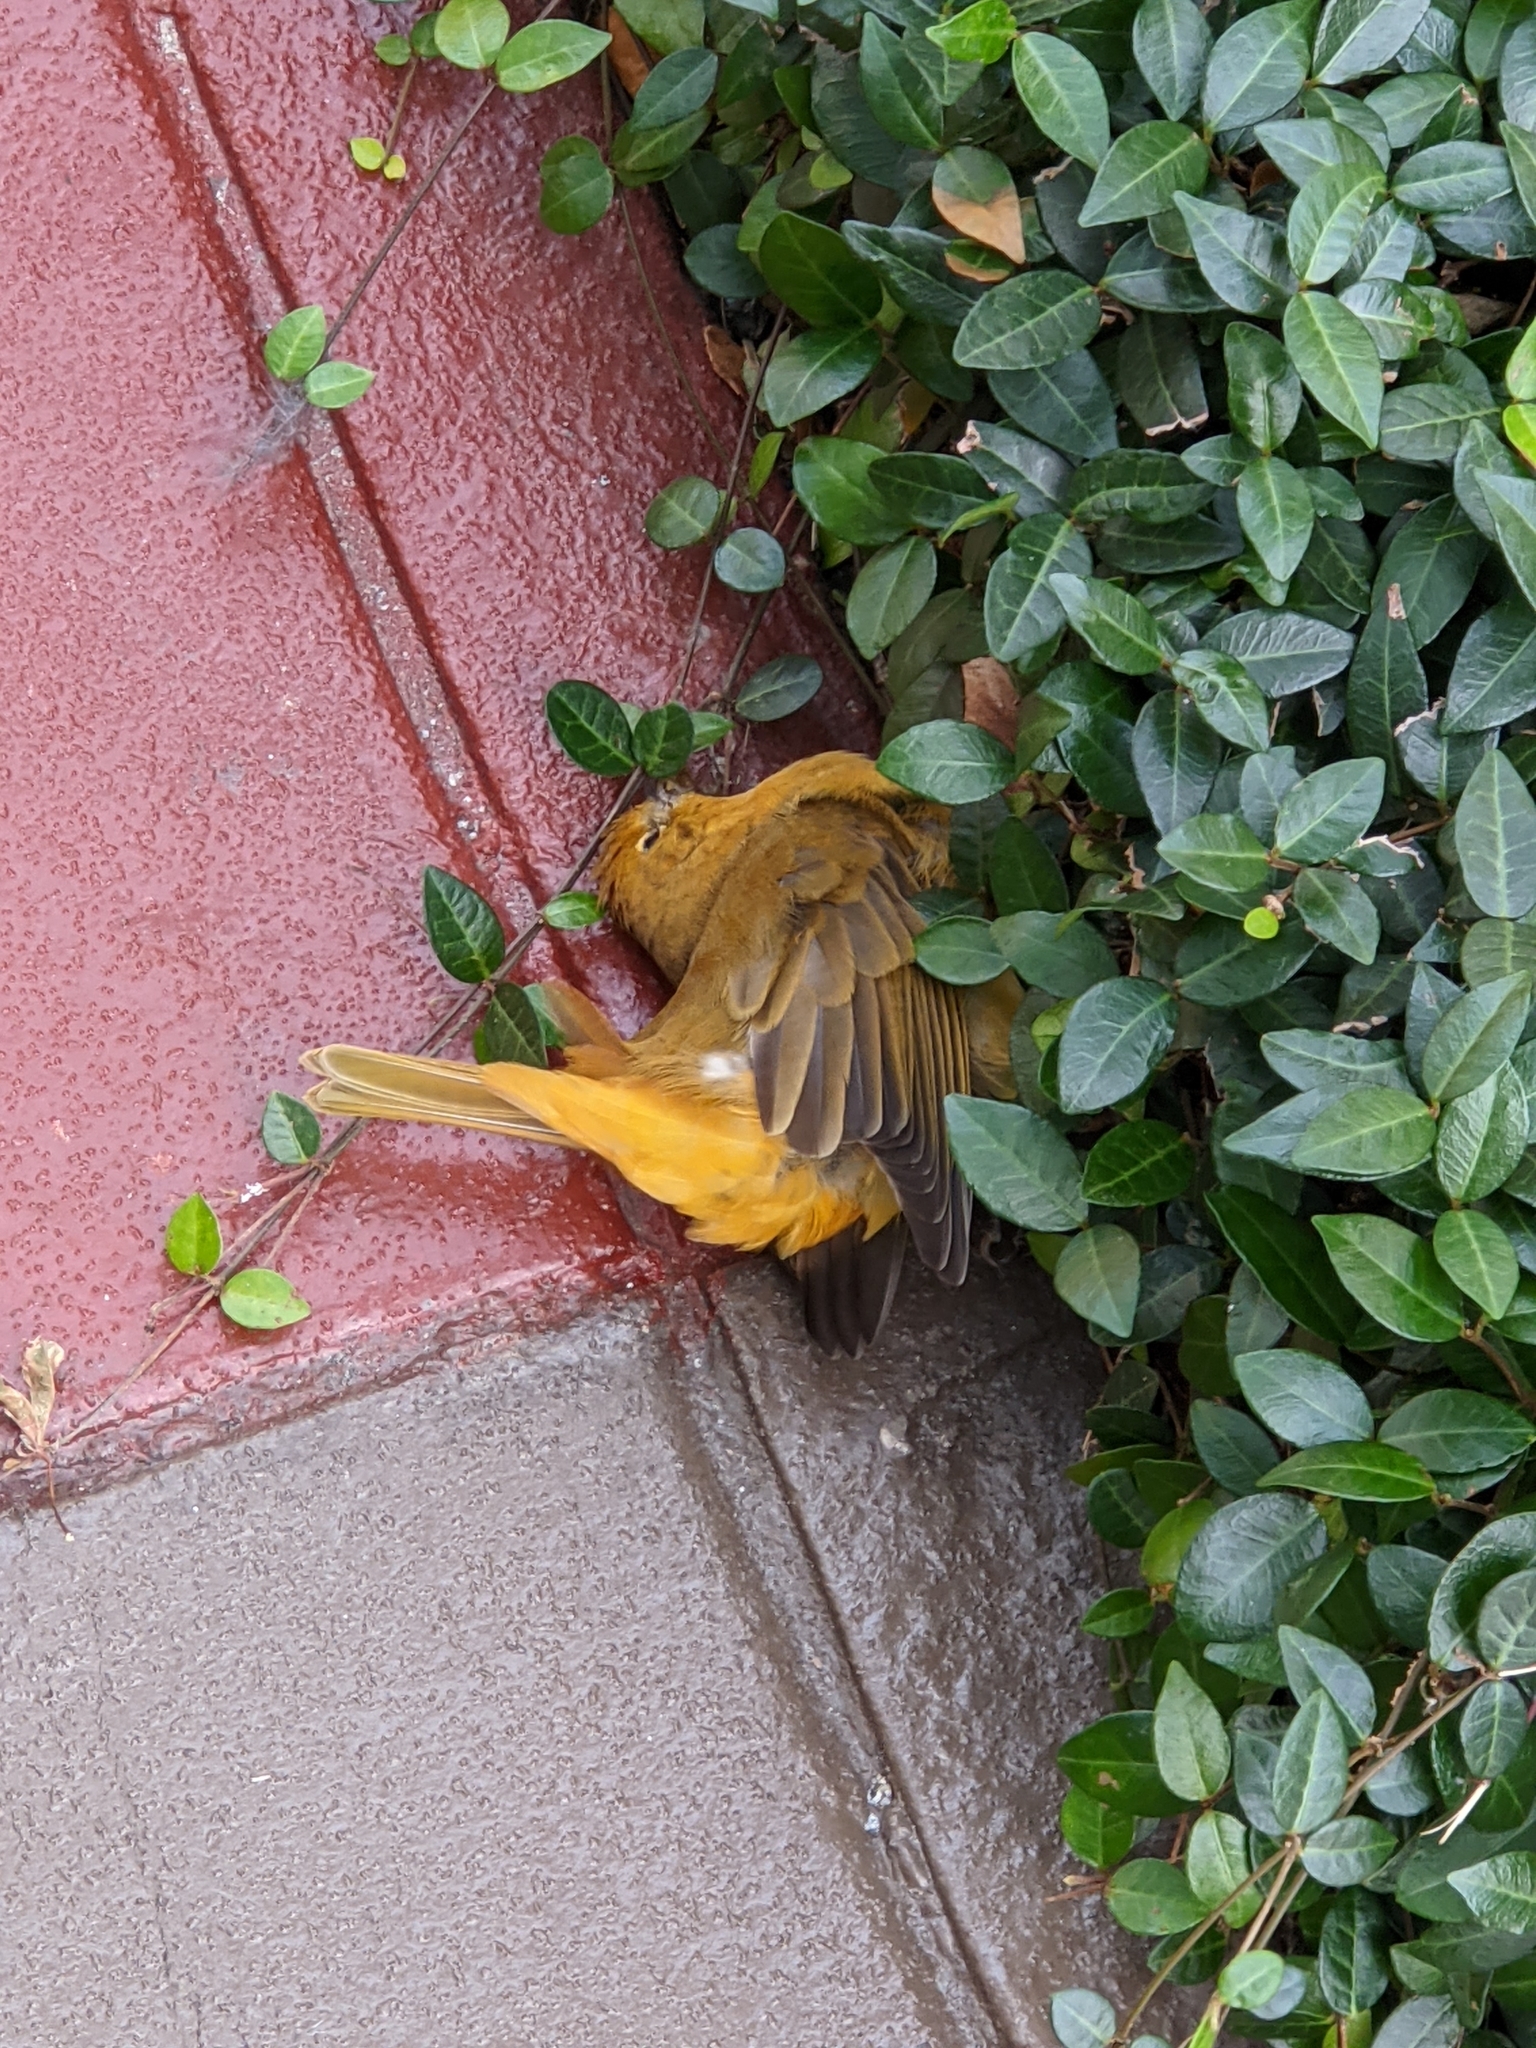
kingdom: Animalia
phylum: Chordata
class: Aves
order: Passeriformes
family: Cardinalidae
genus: Piranga
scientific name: Piranga rubra
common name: Summer tanager
